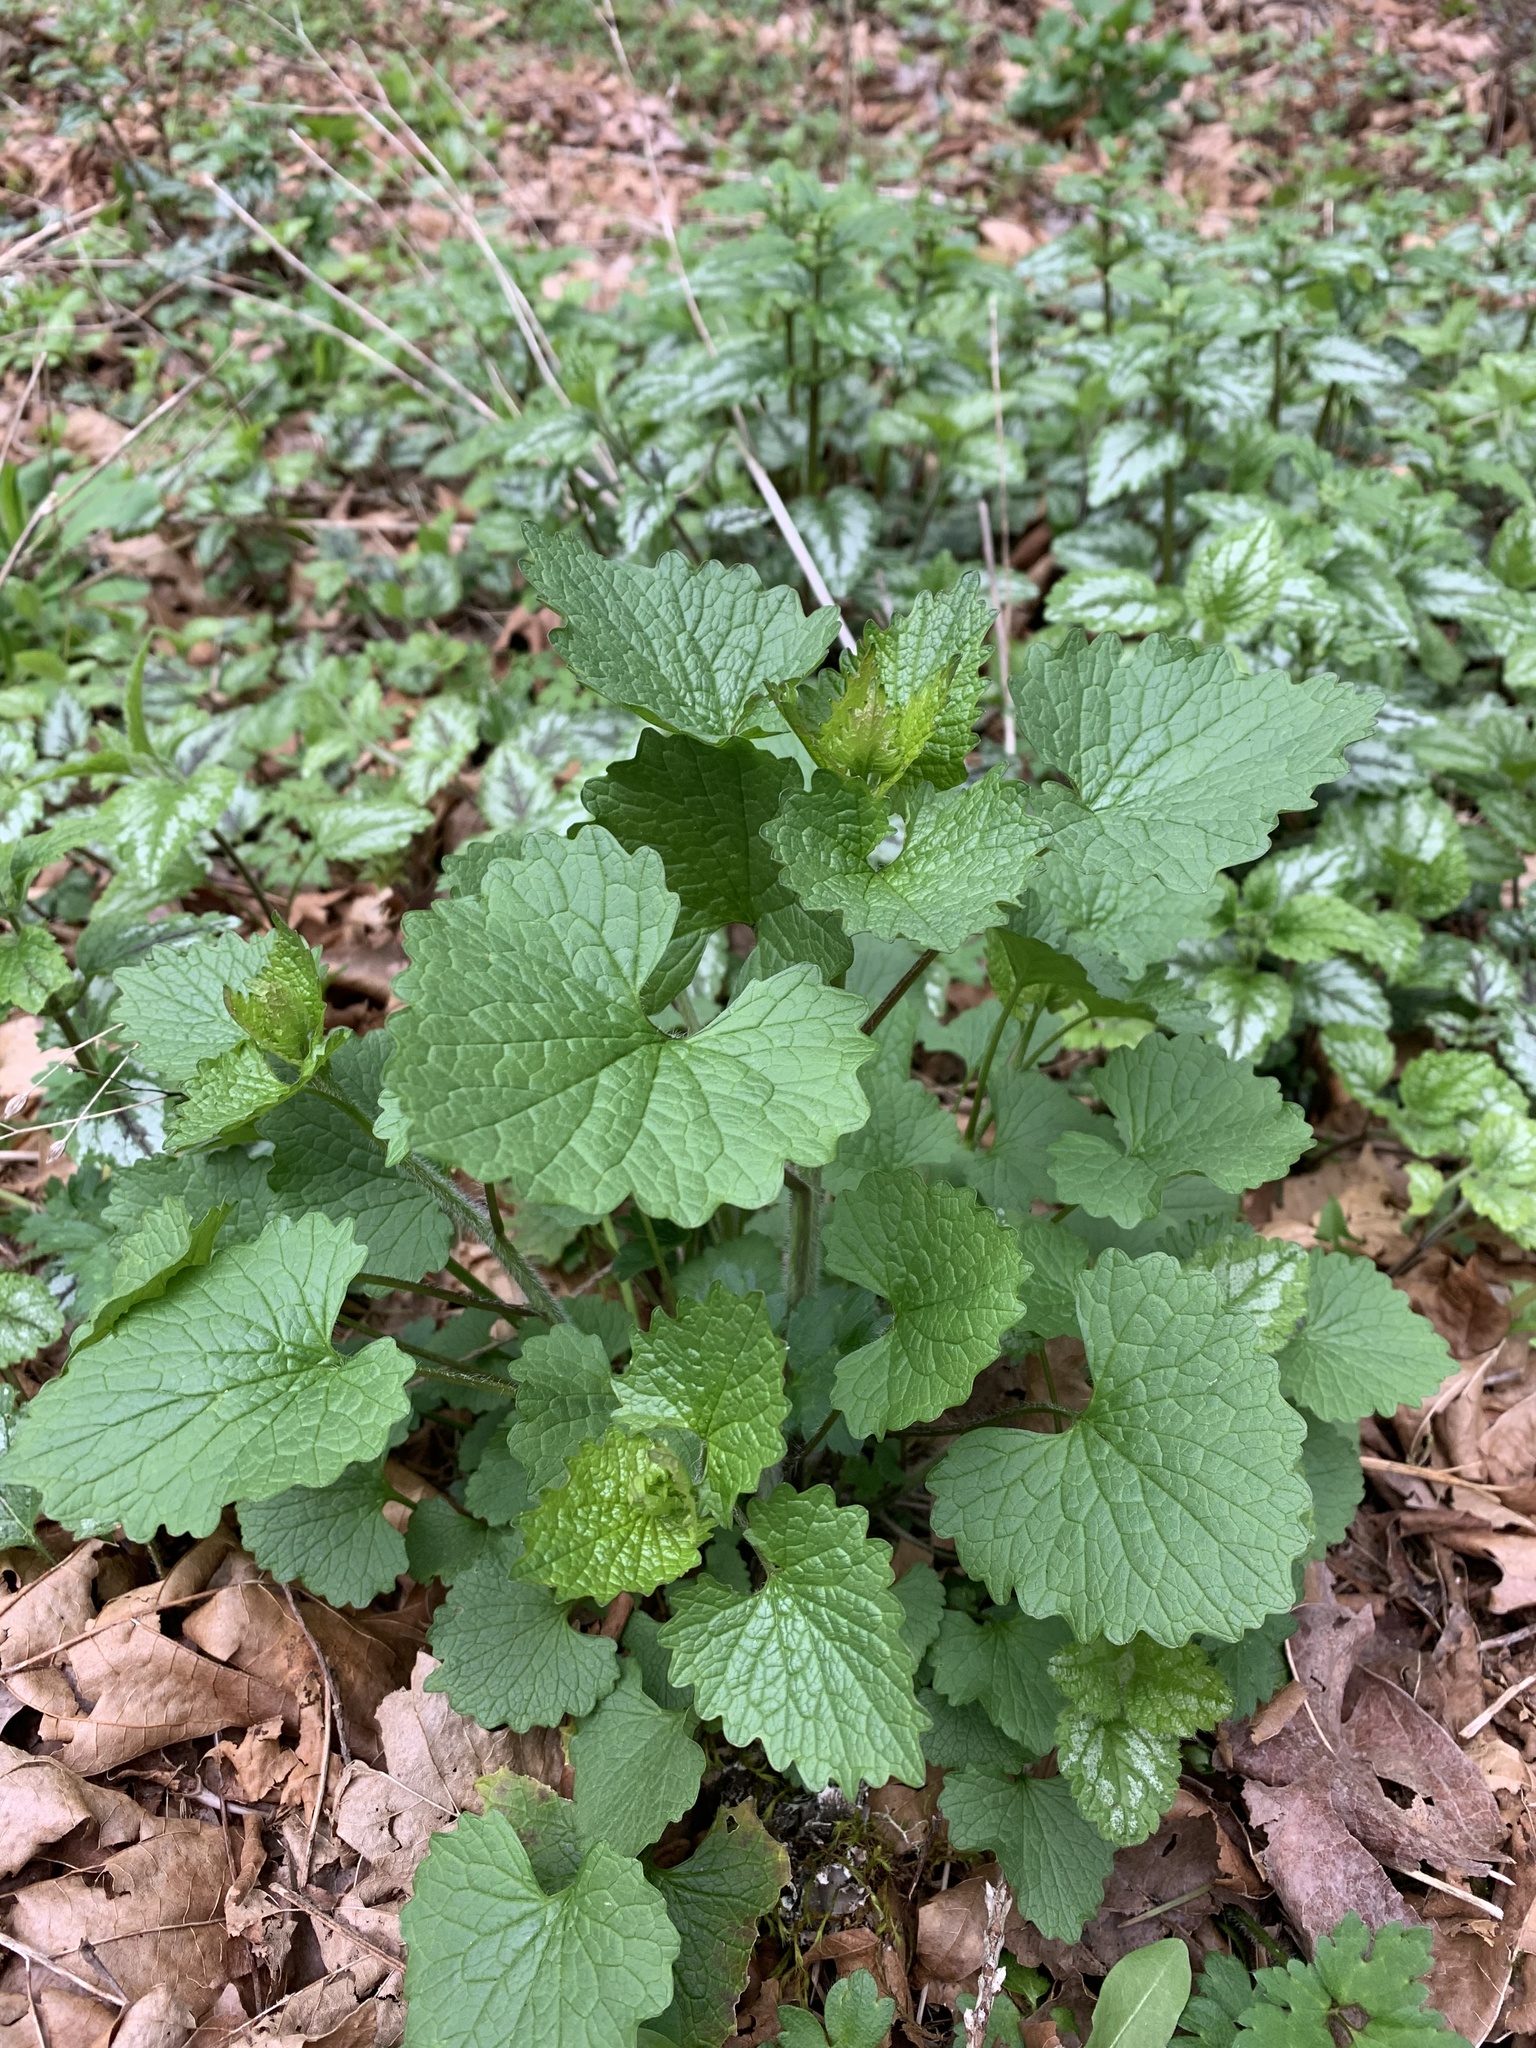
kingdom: Plantae
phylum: Tracheophyta
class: Magnoliopsida
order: Brassicales
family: Brassicaceae
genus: Alliaria
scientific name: Alliaria petiolata
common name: Garlic mustard
